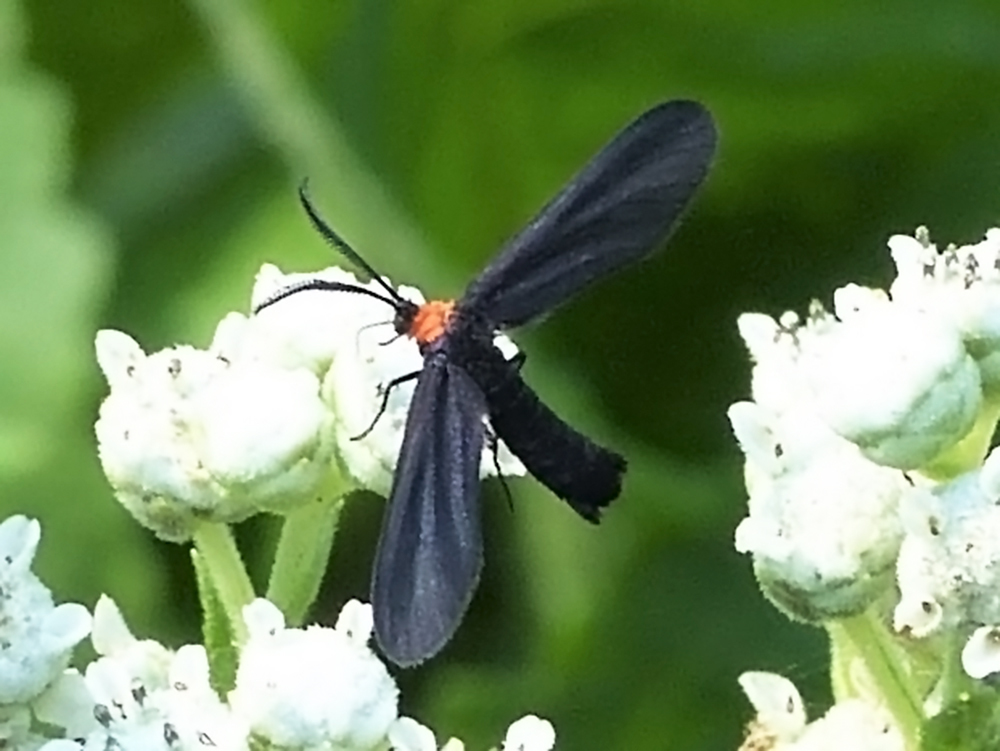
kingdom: Animalia
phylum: Arthropoda
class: Insecta
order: Lepidoptera
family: Zygaenidae
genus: Harrisina
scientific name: Harrisina americana
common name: Grapeleaf skeletonizer moth
